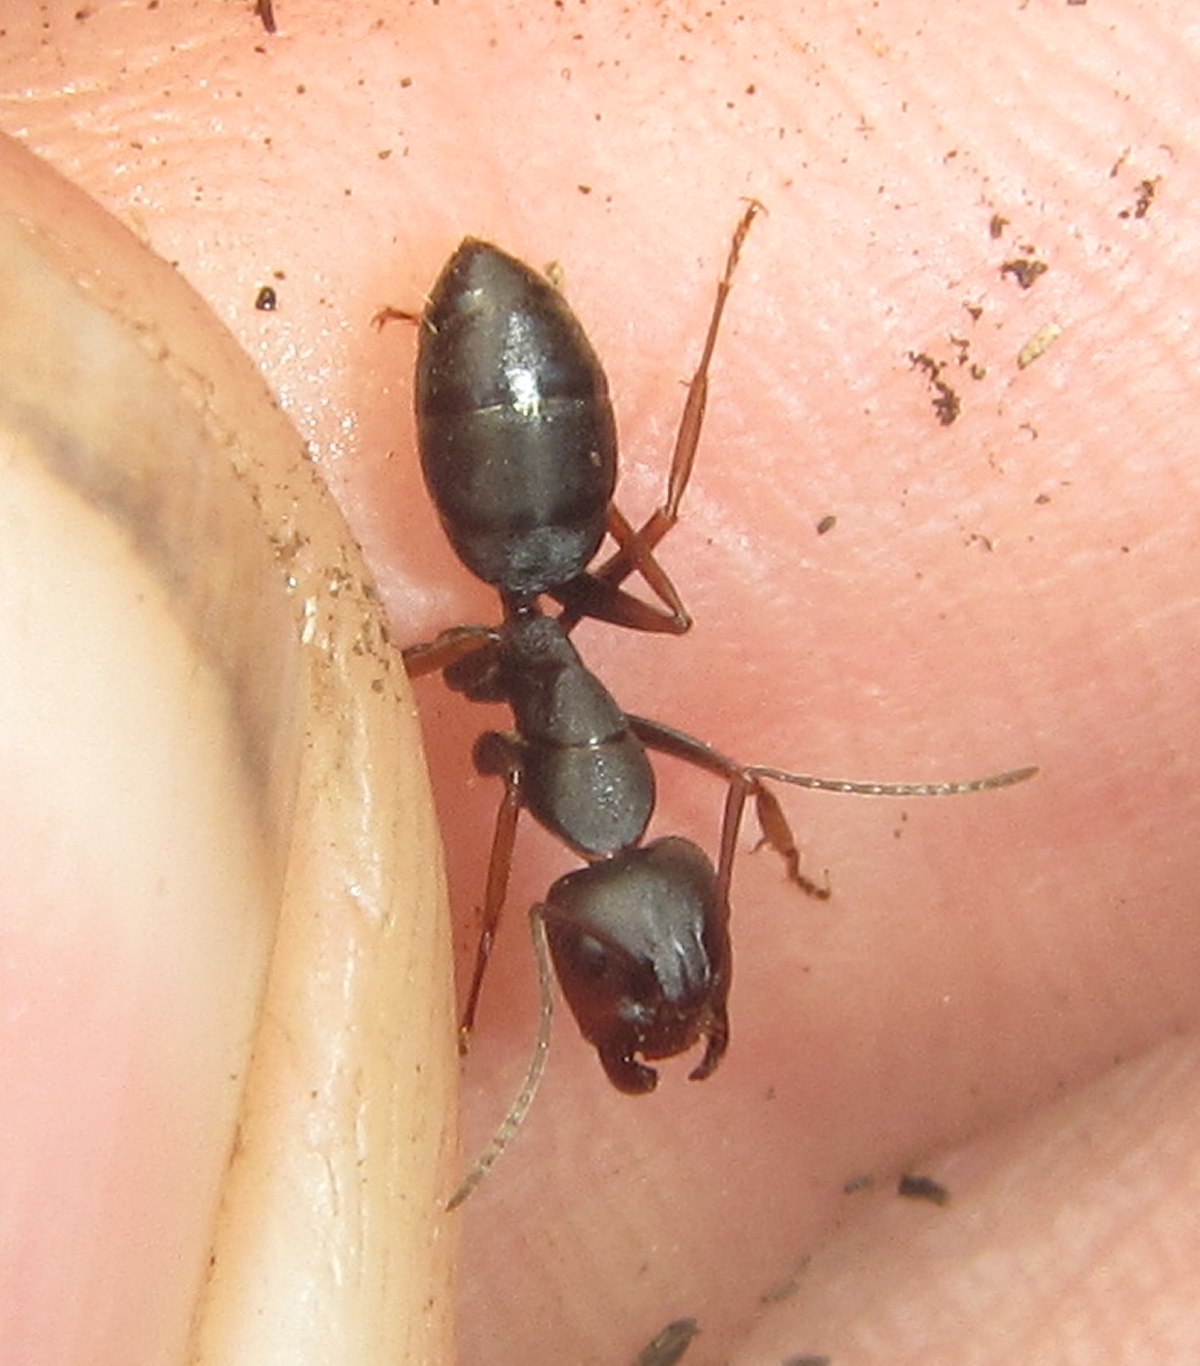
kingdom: Animalia
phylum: Arthropoda
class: Insecta
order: Hymenoptera
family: Formicidae
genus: Camponotus
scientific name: Camponotus tauricollis
